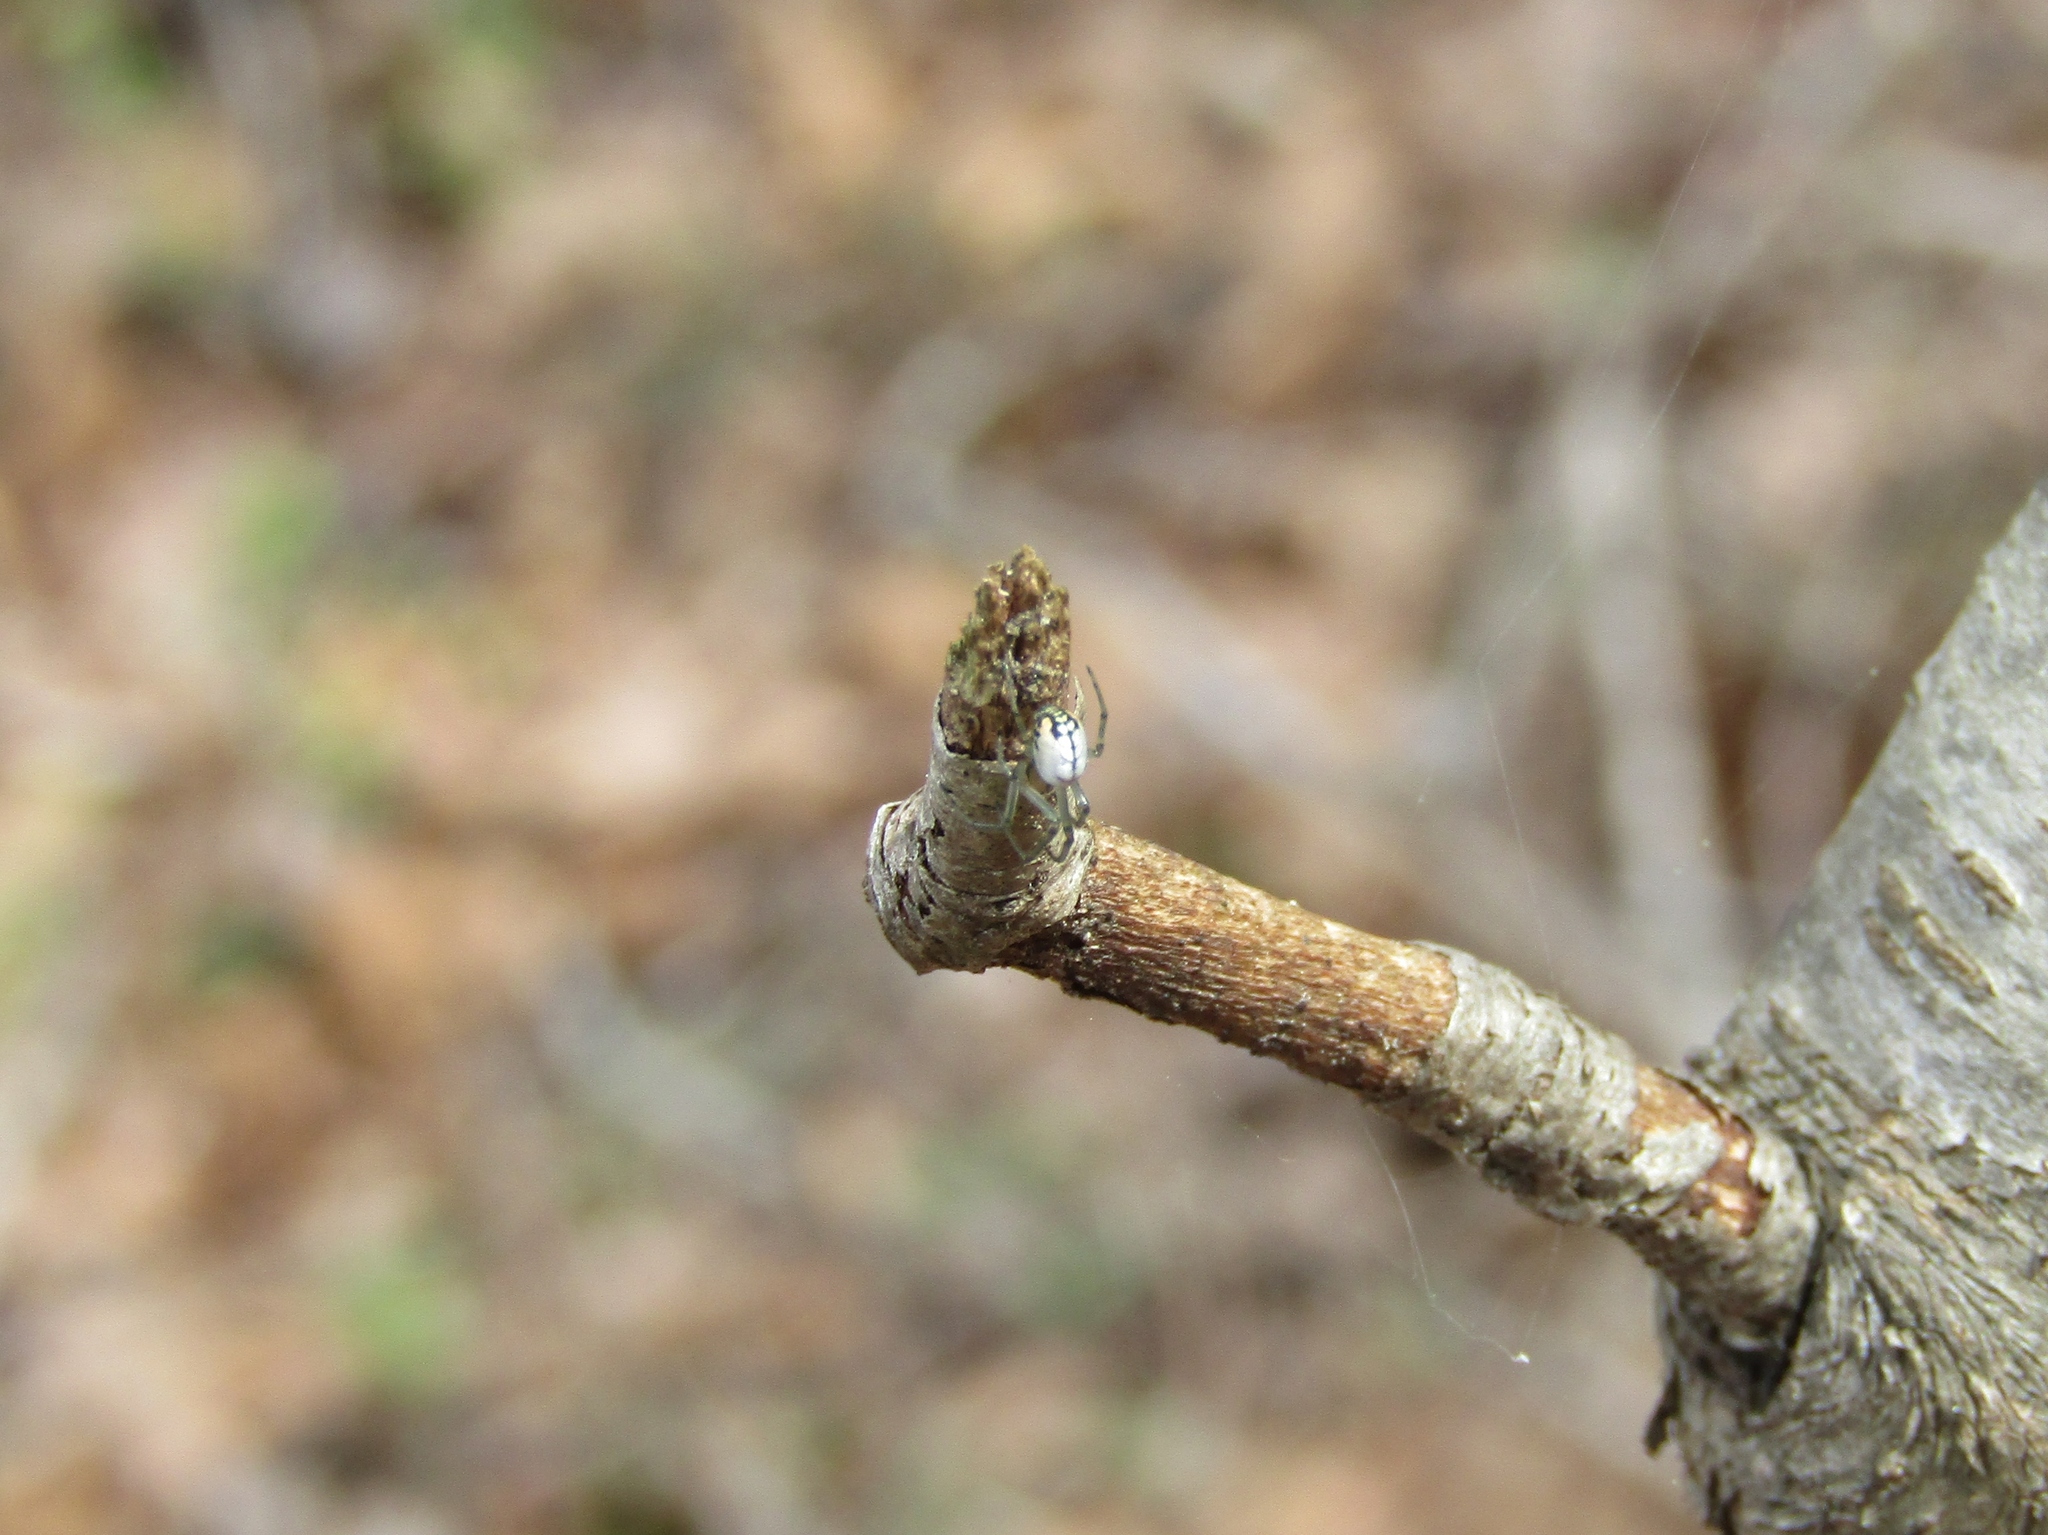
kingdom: Animalia
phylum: Arthropoda
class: Arachnida
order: Araneae
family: Tetragnathidae
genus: Leucauge
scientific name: Leucauge venusta
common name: Longjawed orb weavers
